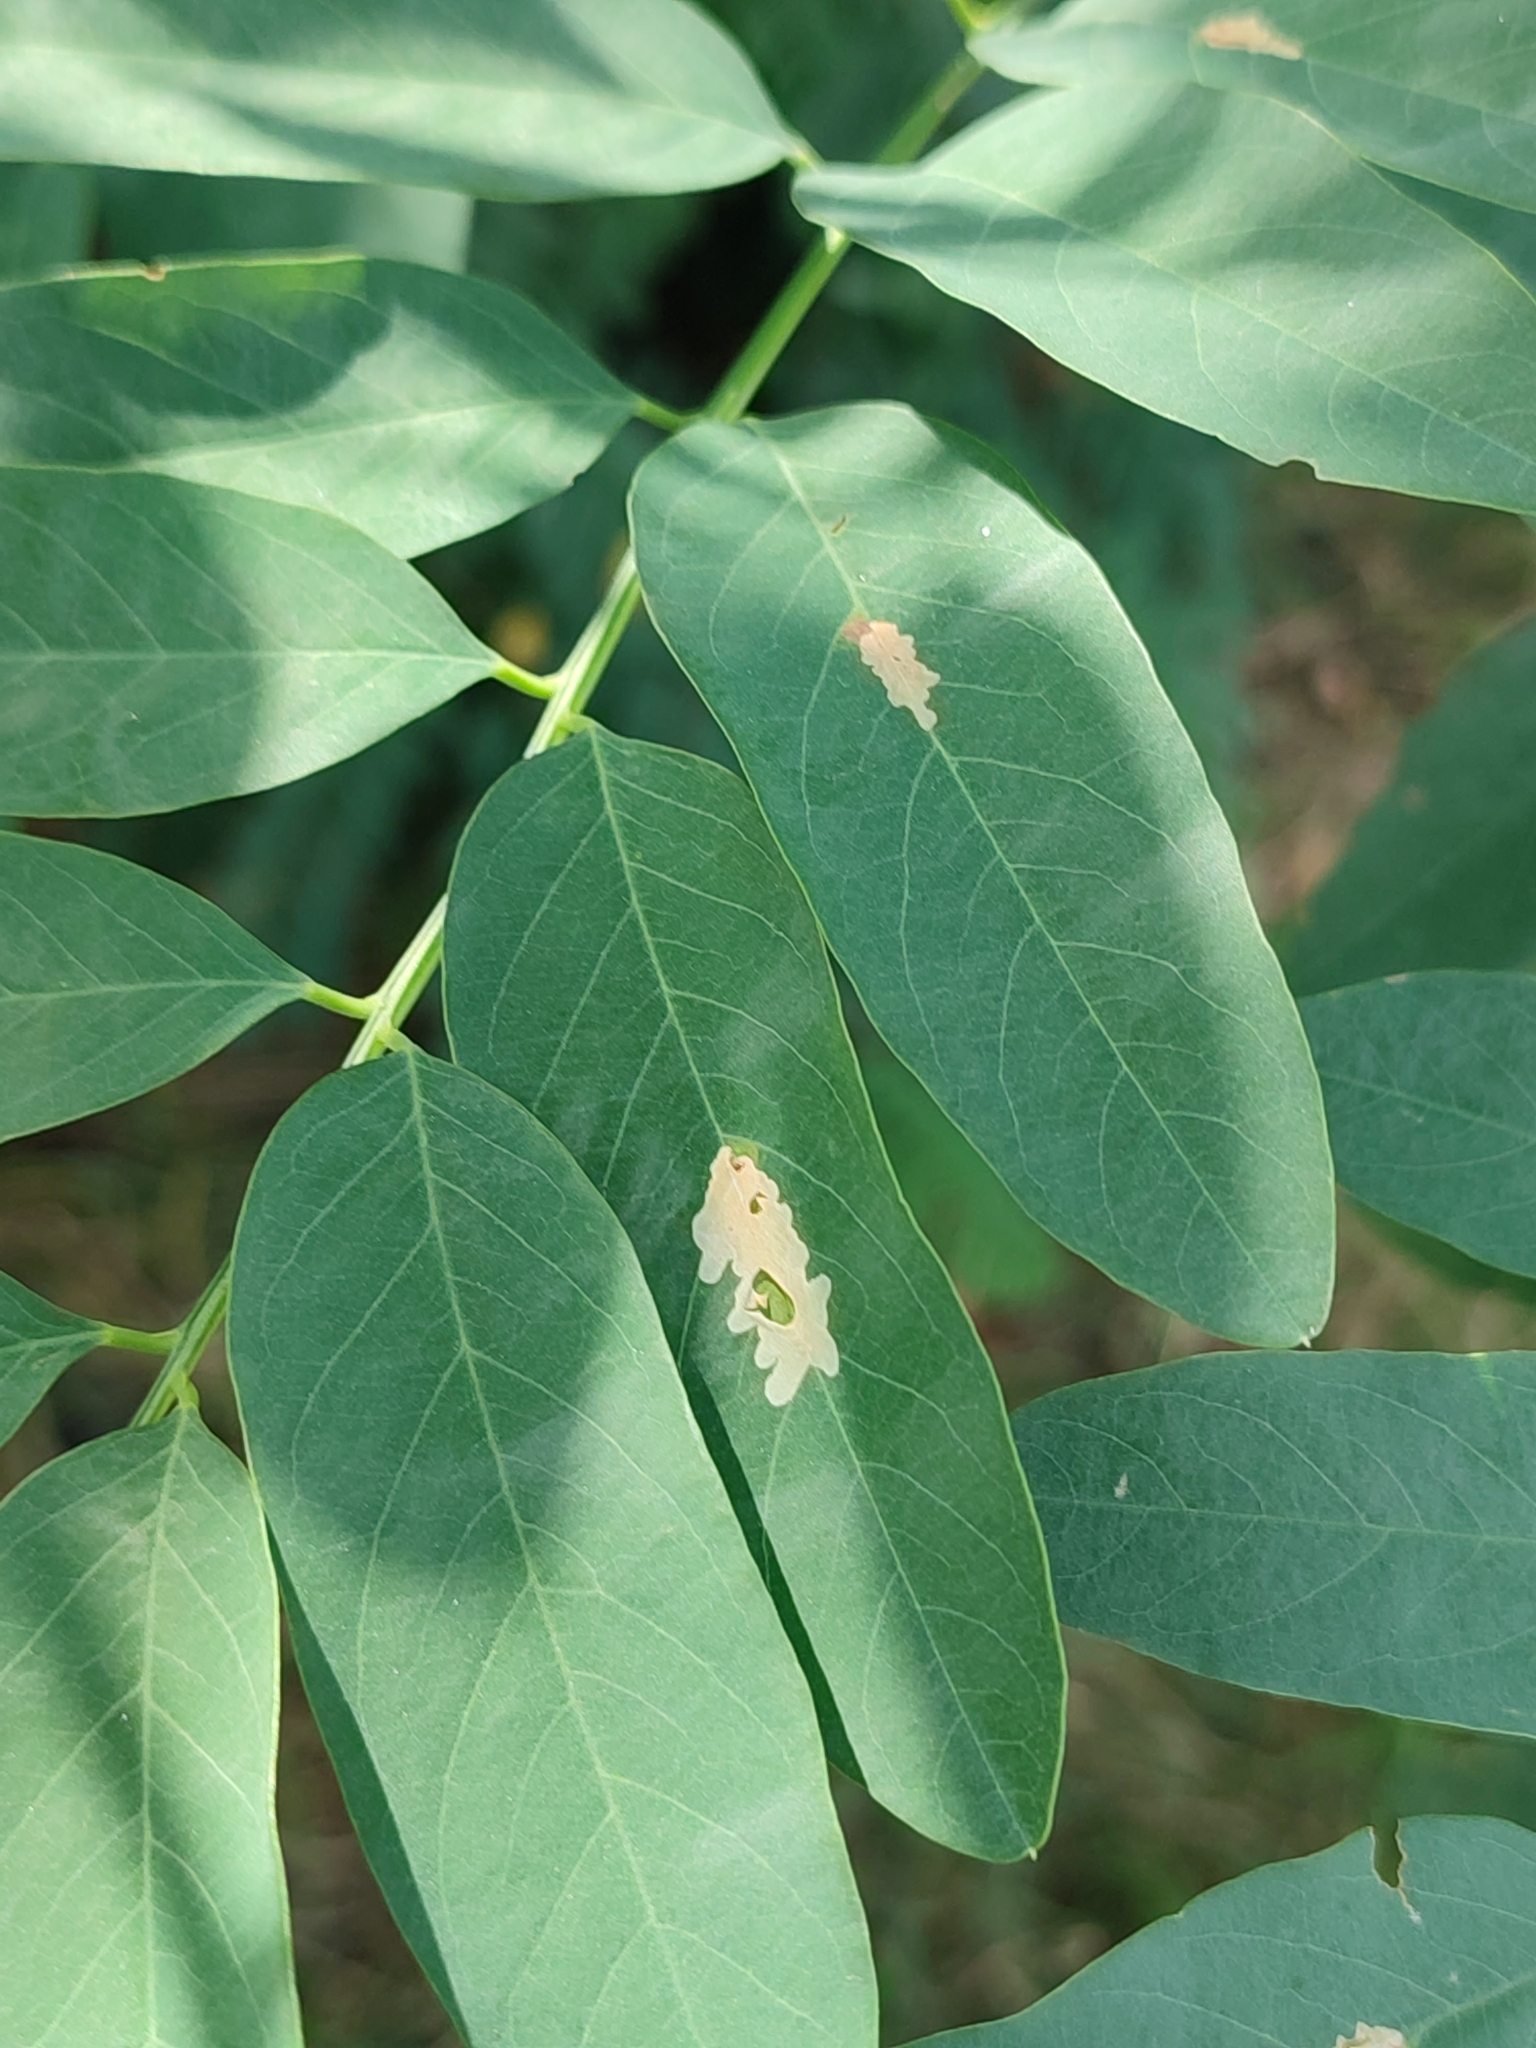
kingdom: Animalia
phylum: Arthropoda
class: Insecta
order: Lepidoptera
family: Gracillariidae
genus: Parectopa
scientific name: Parectopa robiniella
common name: Locust digitate leafminer
